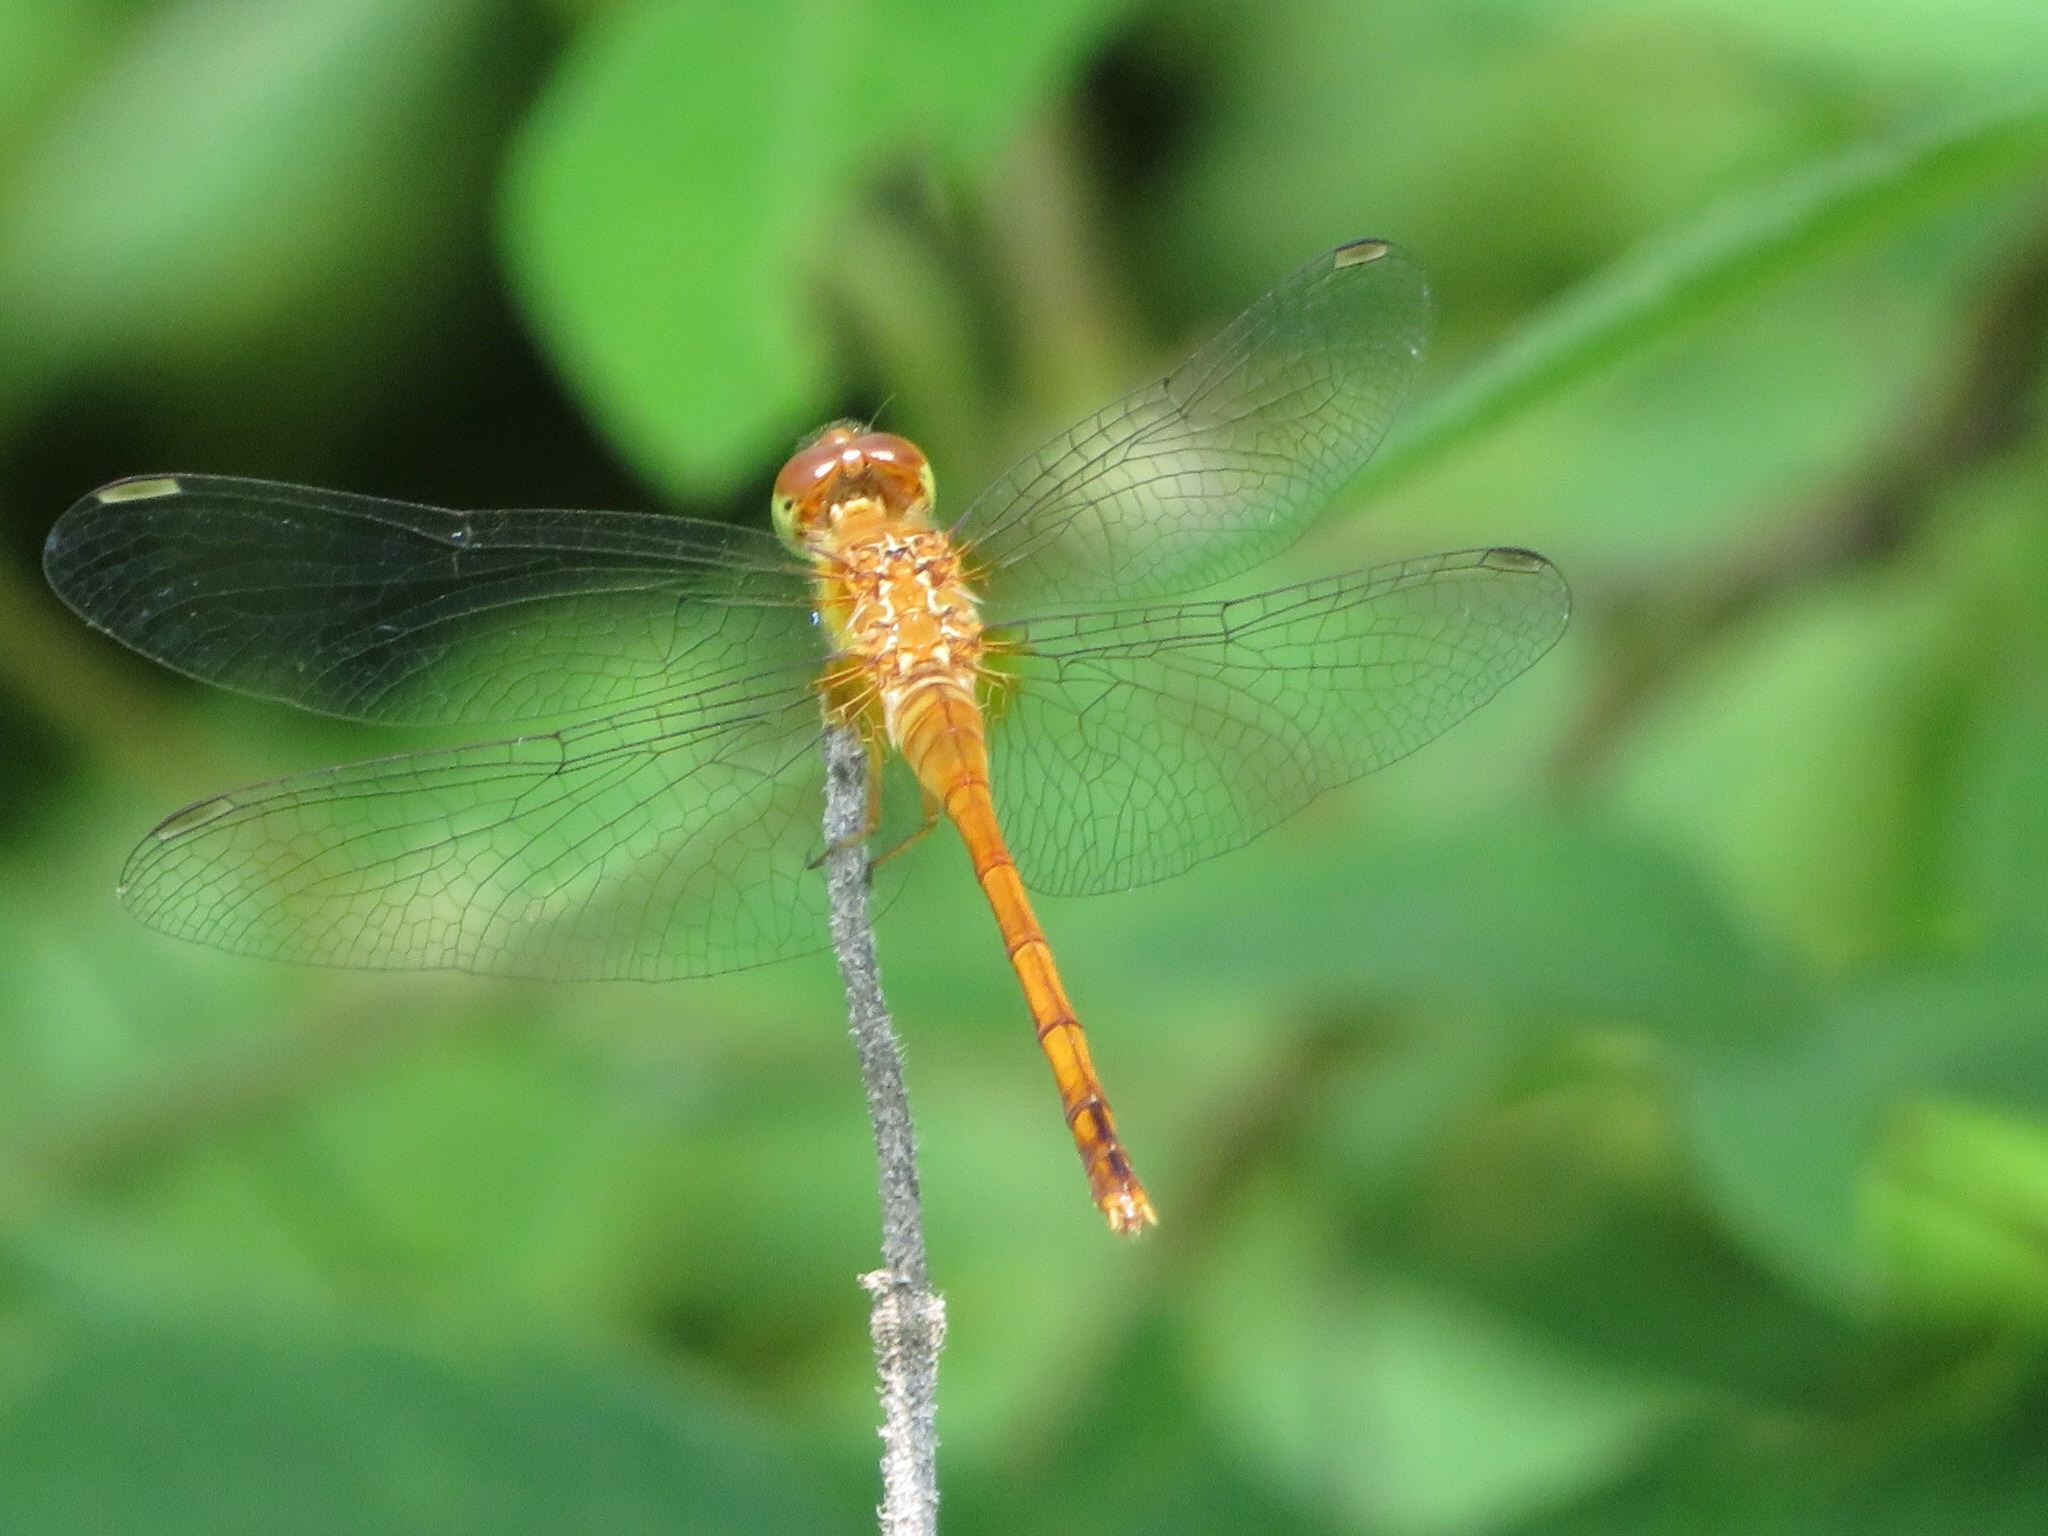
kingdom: Animalia
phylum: Arthropoda
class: Insecta
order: Odonata
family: Libellulidae
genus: Sympetrum
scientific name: Sympetrum vicinum
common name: Autumn meadowhawk
